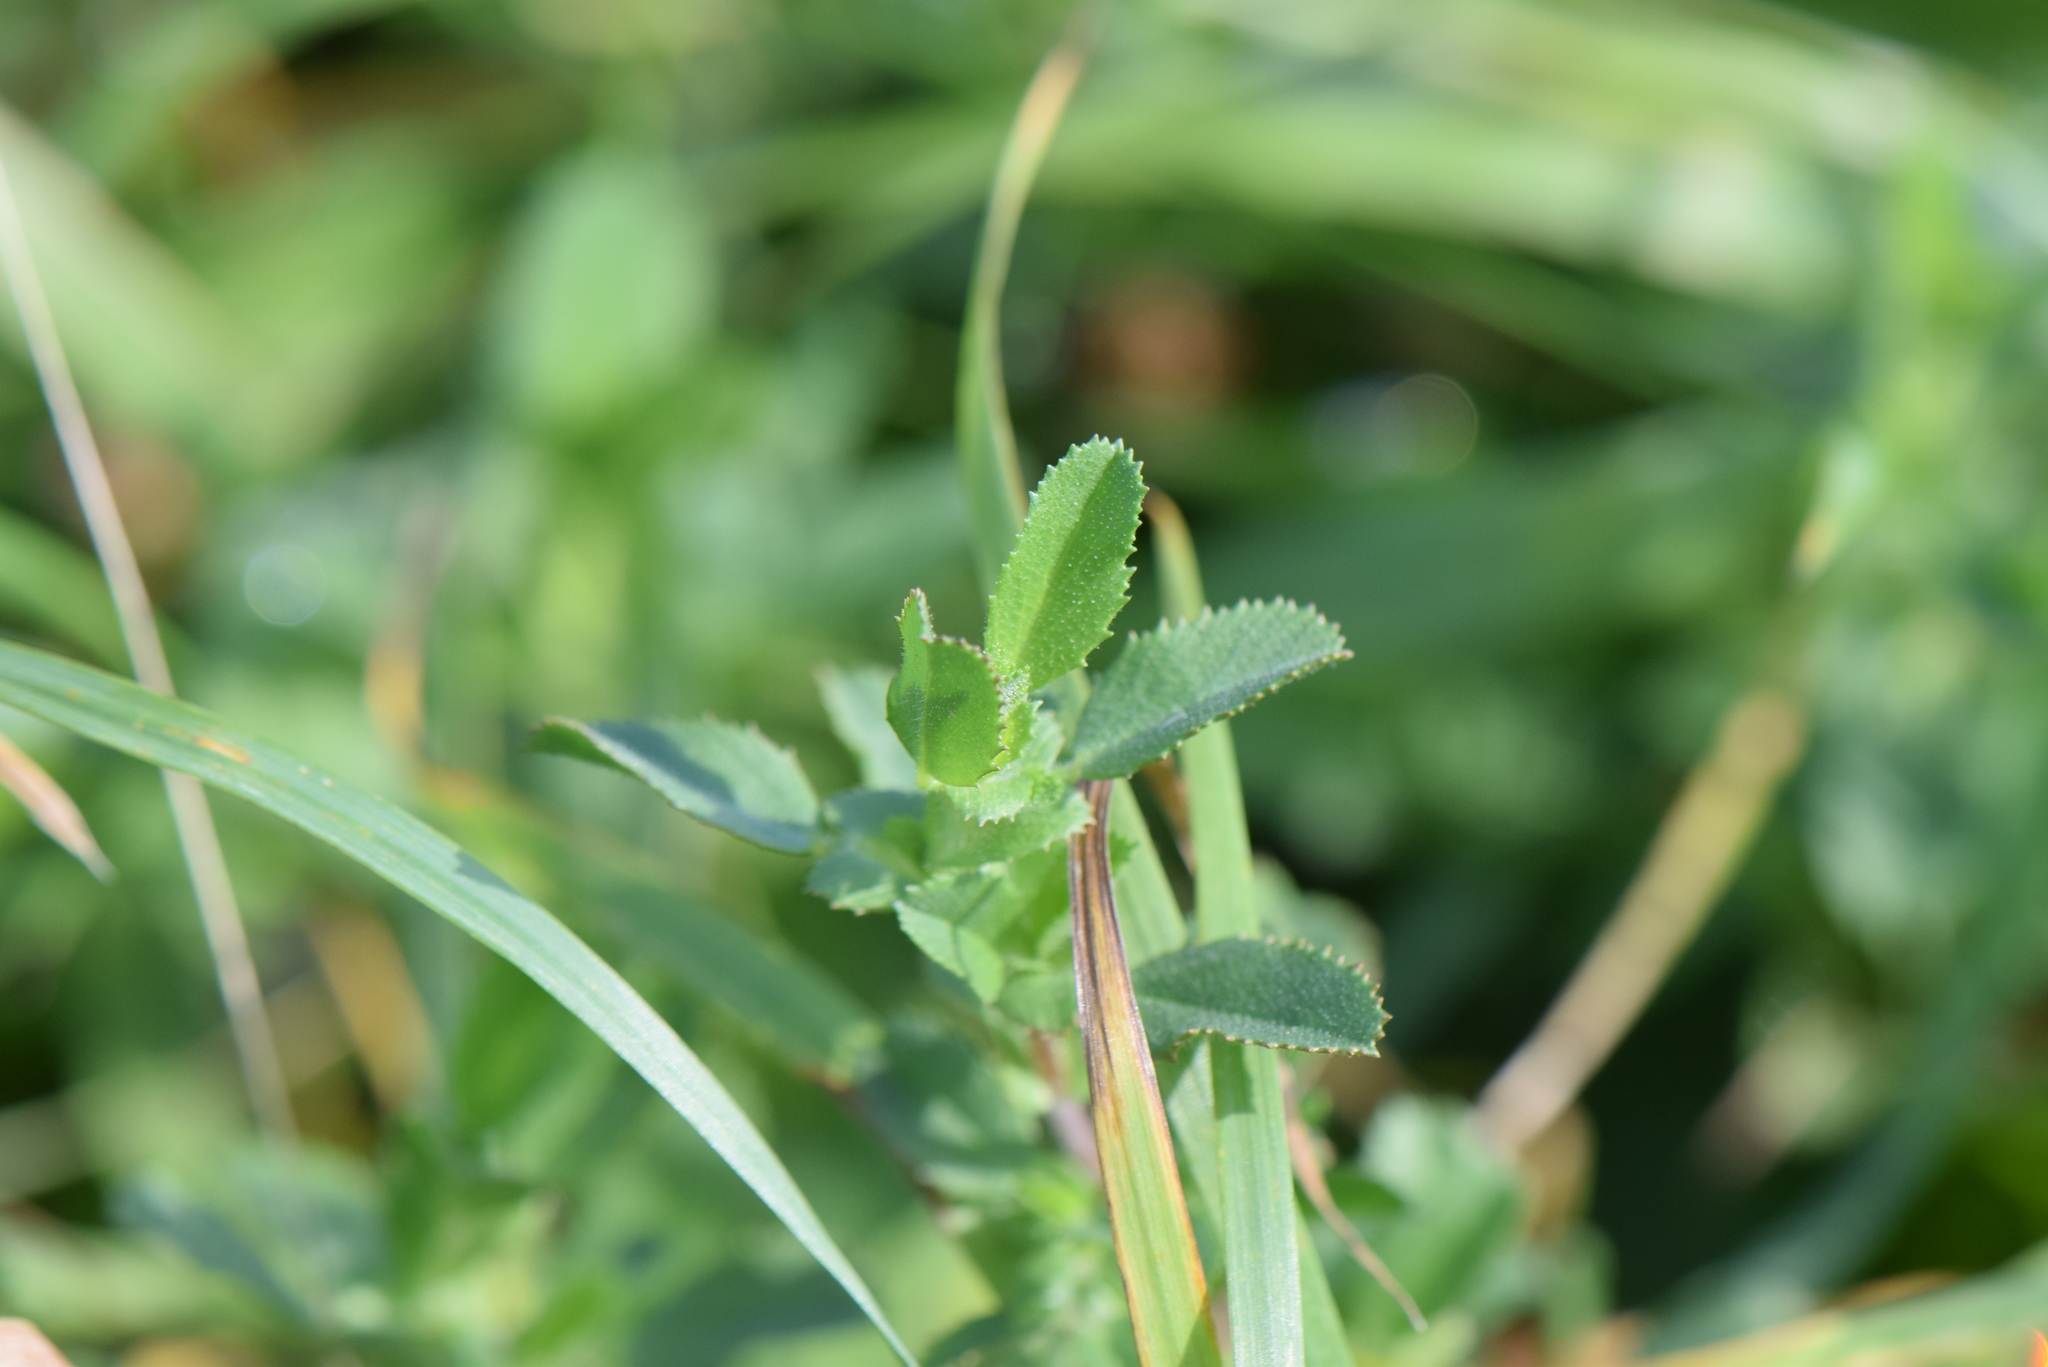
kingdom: Plantae
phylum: Tracheophyta
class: Magnoliopsida
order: Fabales
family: Fabaceae
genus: Ononis
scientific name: Ononis spinosa
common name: Spiny restharrow
